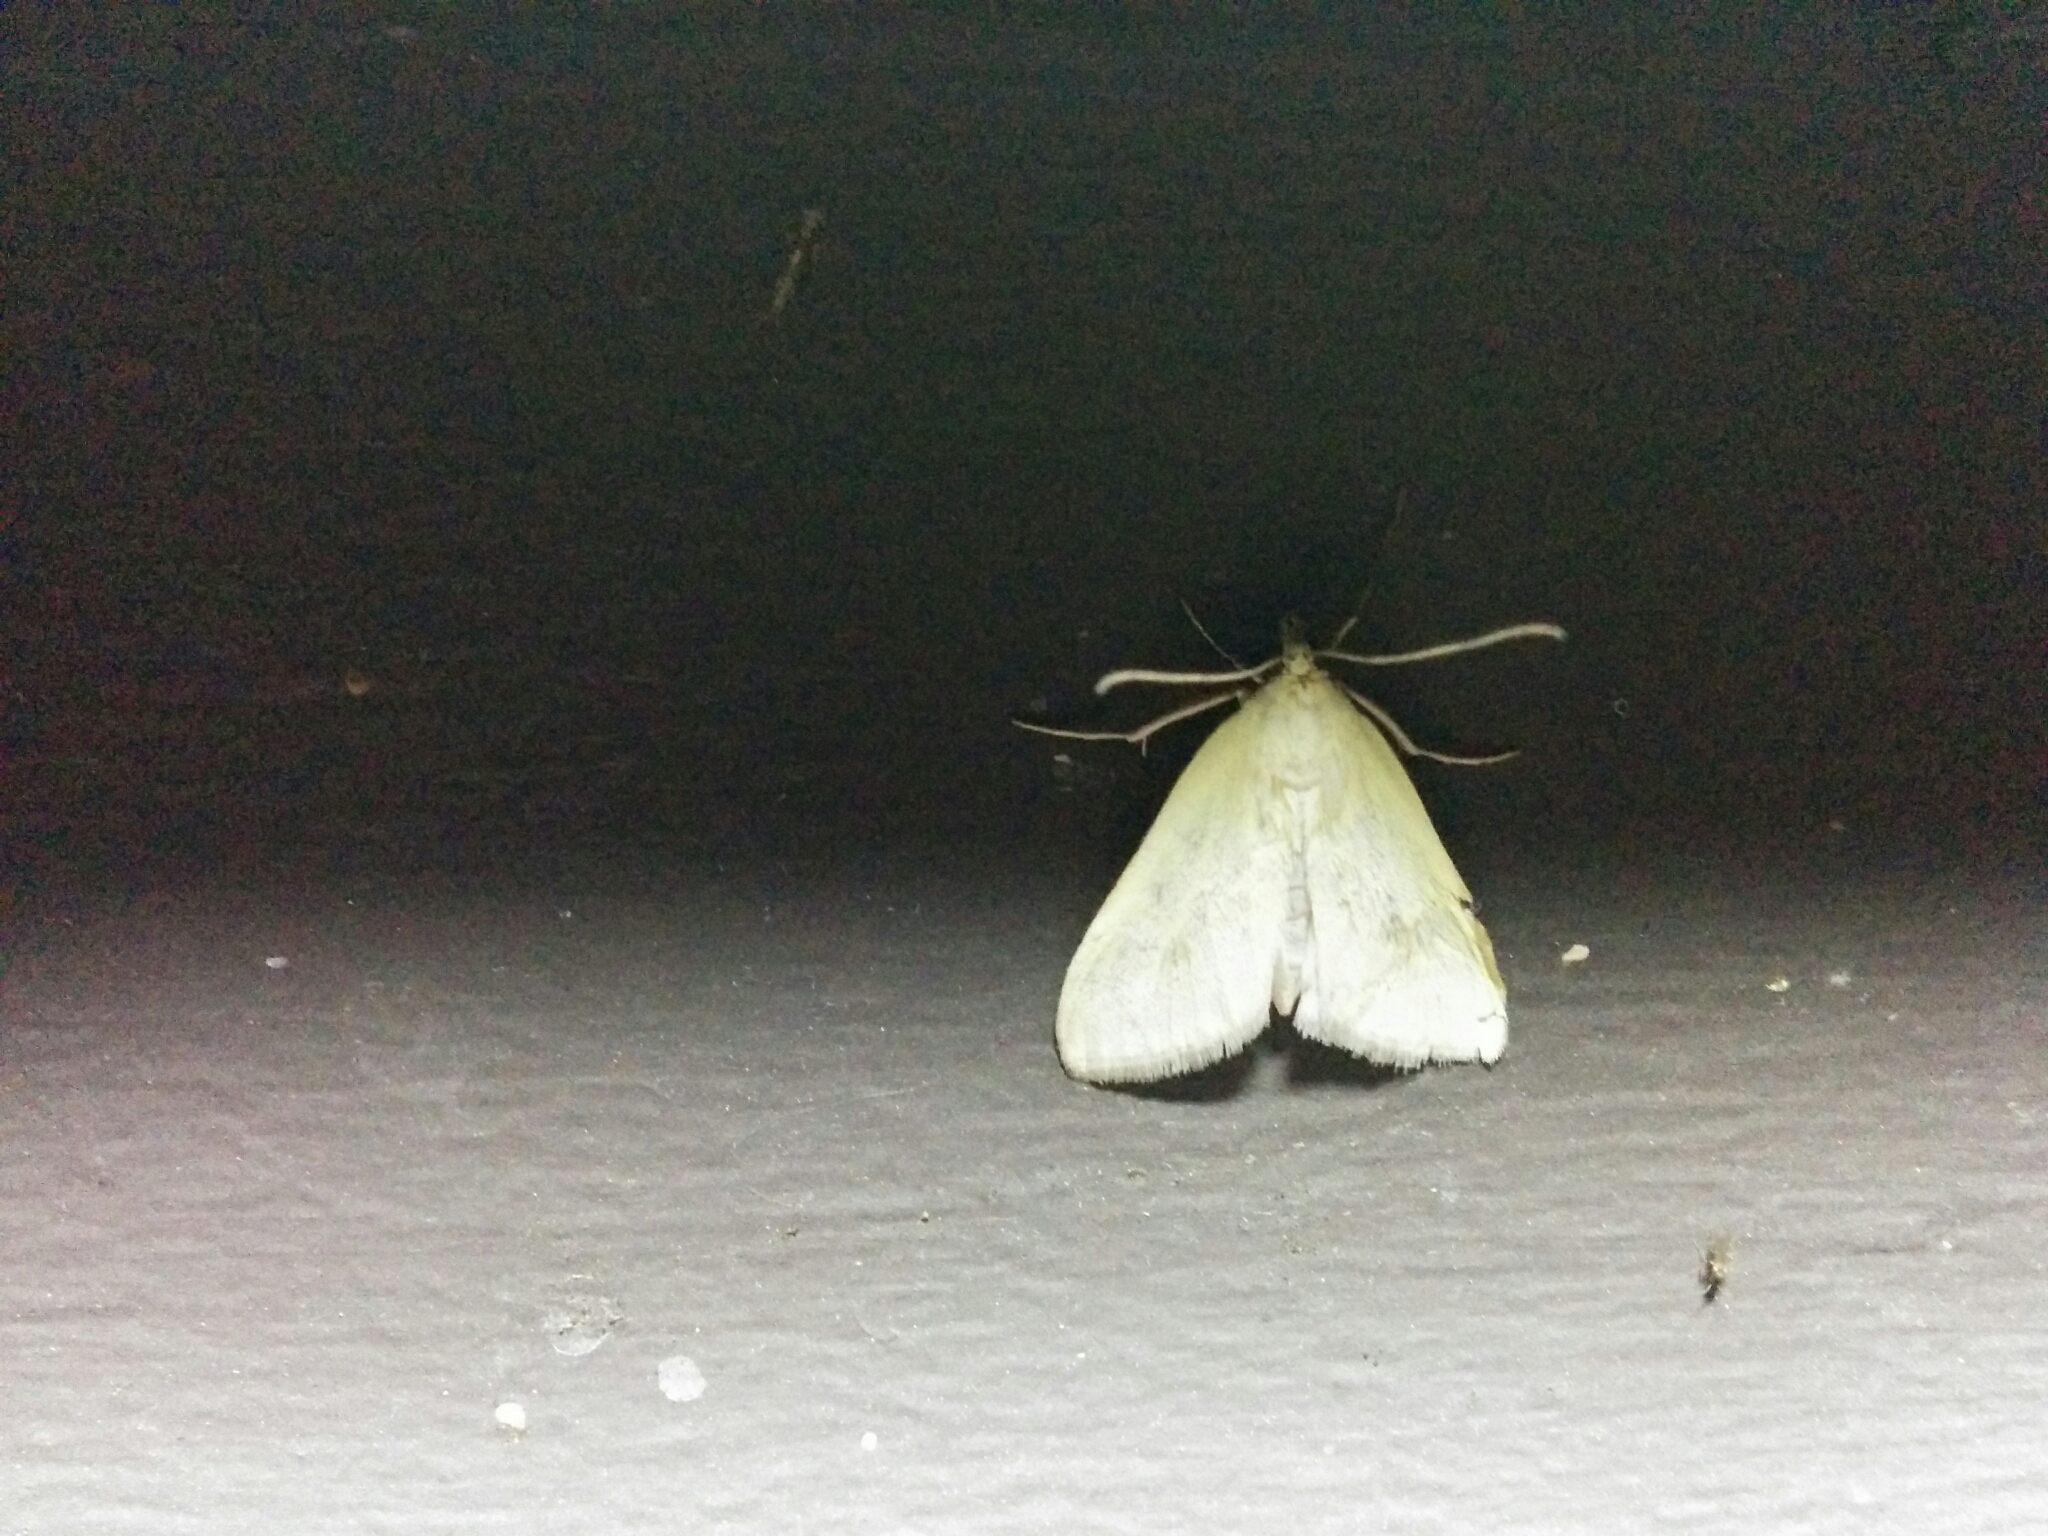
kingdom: Animalia
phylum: Arthropoda
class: Insecta
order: Lepidoptera
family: Crambidae
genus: Sitochroa
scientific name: Sitochroa palealis
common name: Greenish-yellow sitochroa moth
